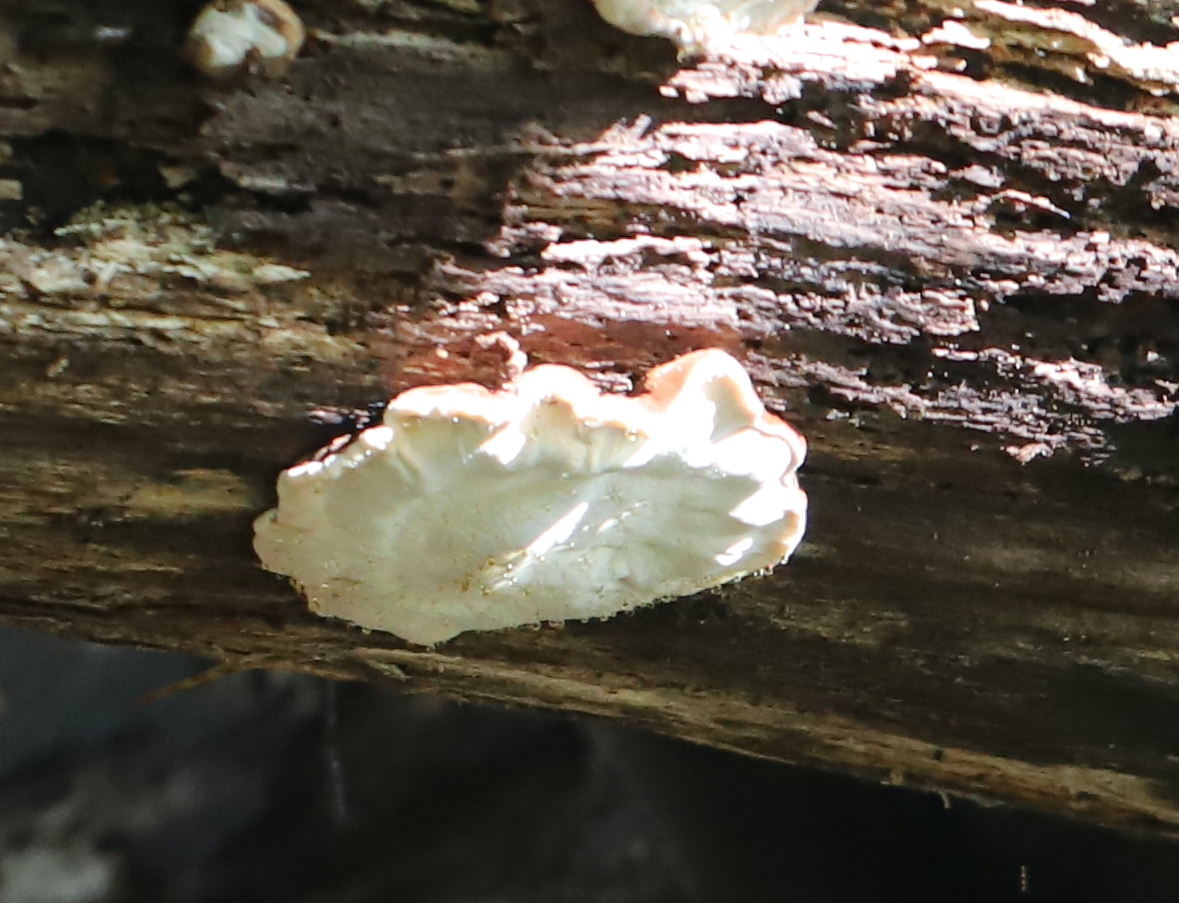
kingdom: Fungi
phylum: Basidiomycota
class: Agaricomycetes
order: Polyporales
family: Ischnodermataceae
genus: Ischnoderma
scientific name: Ischnoderma resinosum
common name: Resinous polypore
